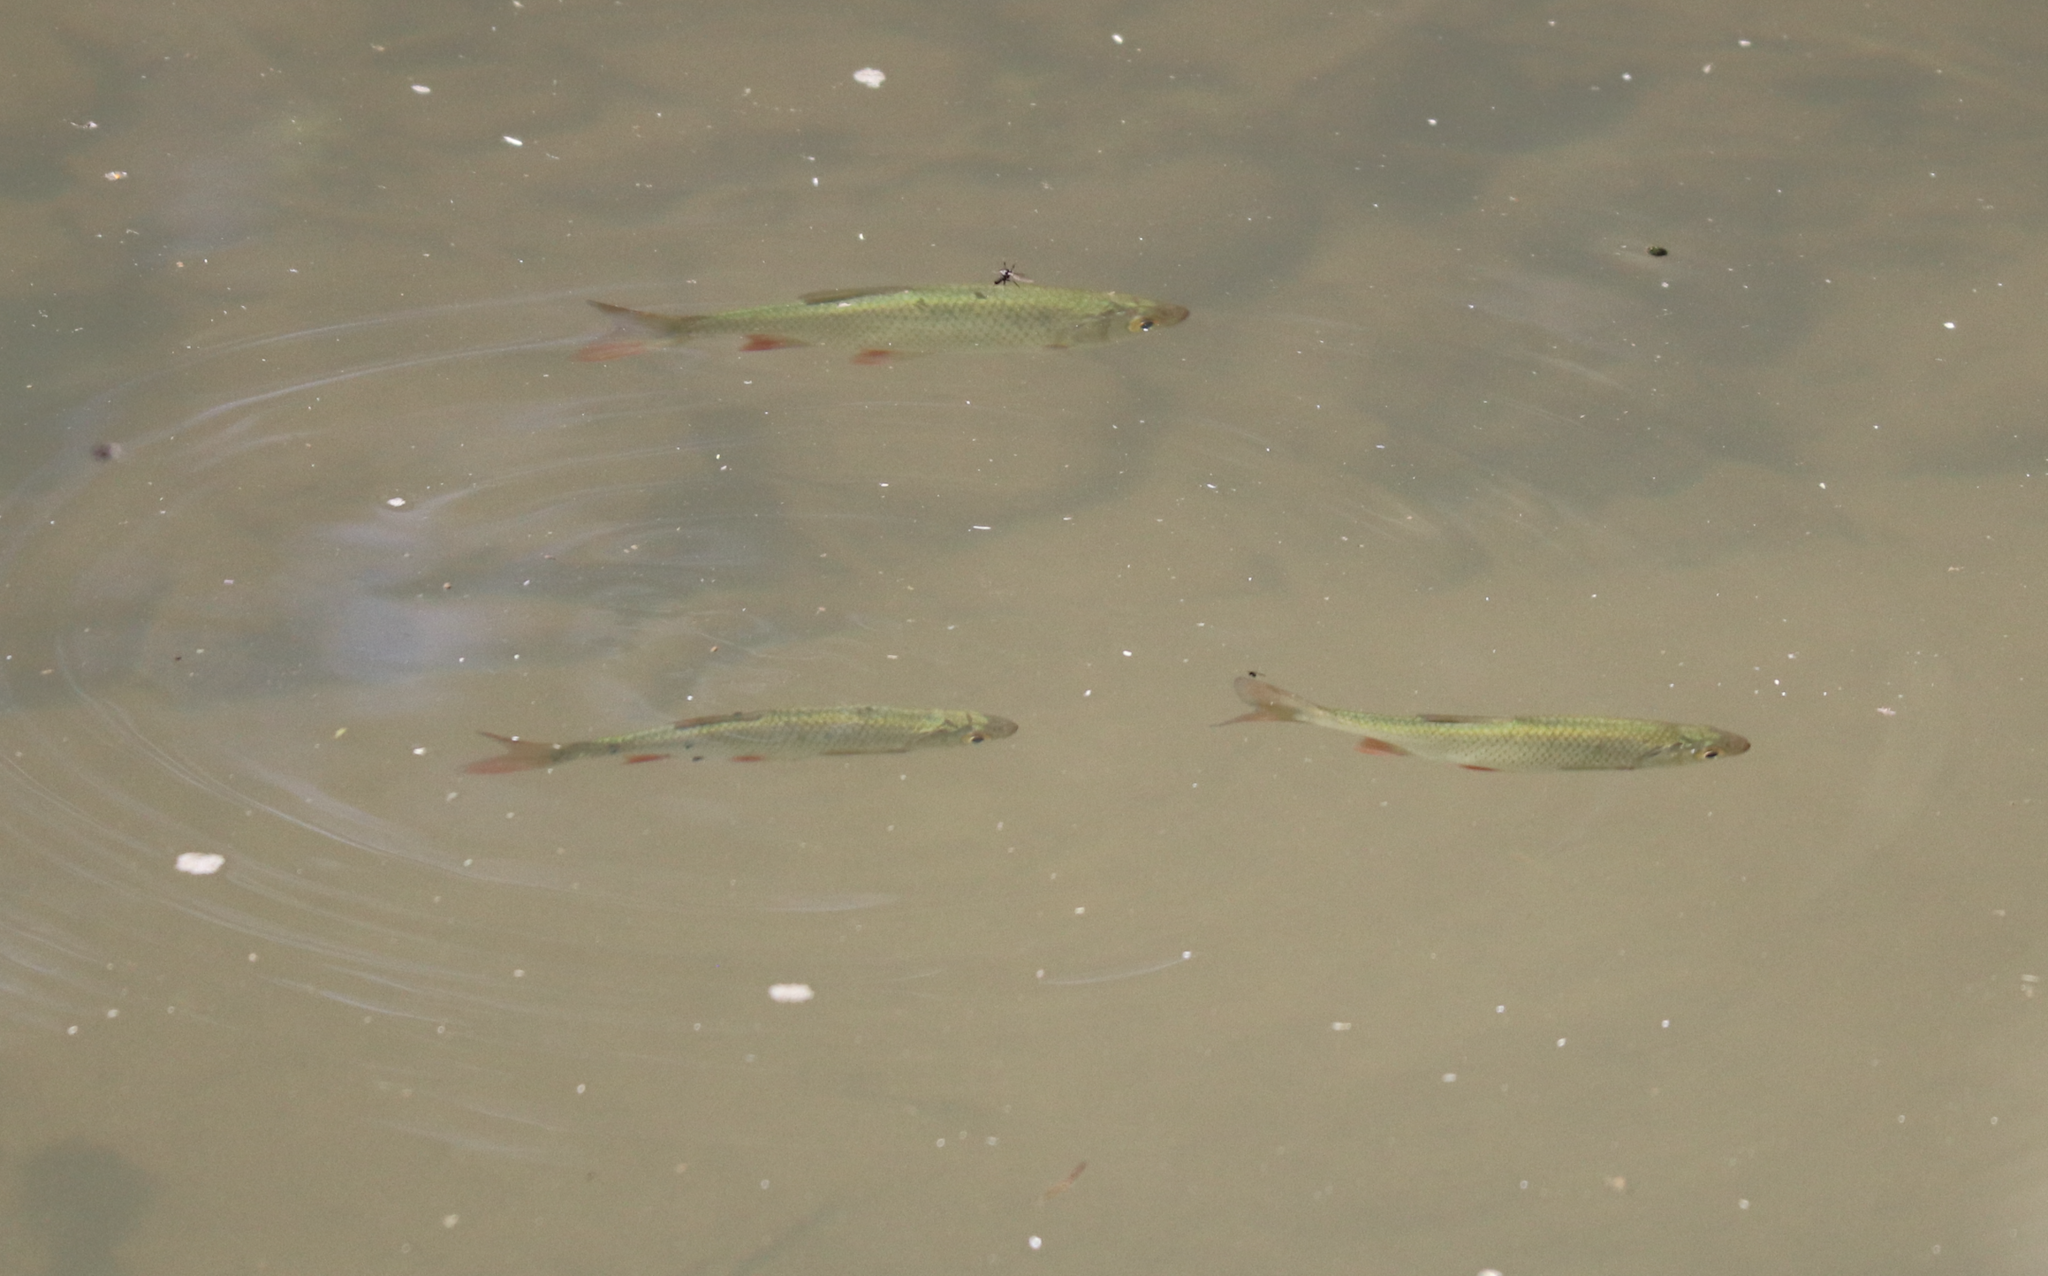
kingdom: Animalia
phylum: Chordata
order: Cypriniformes
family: Cyprinidae
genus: Squalius
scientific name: Squalius cephalus
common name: Chub
